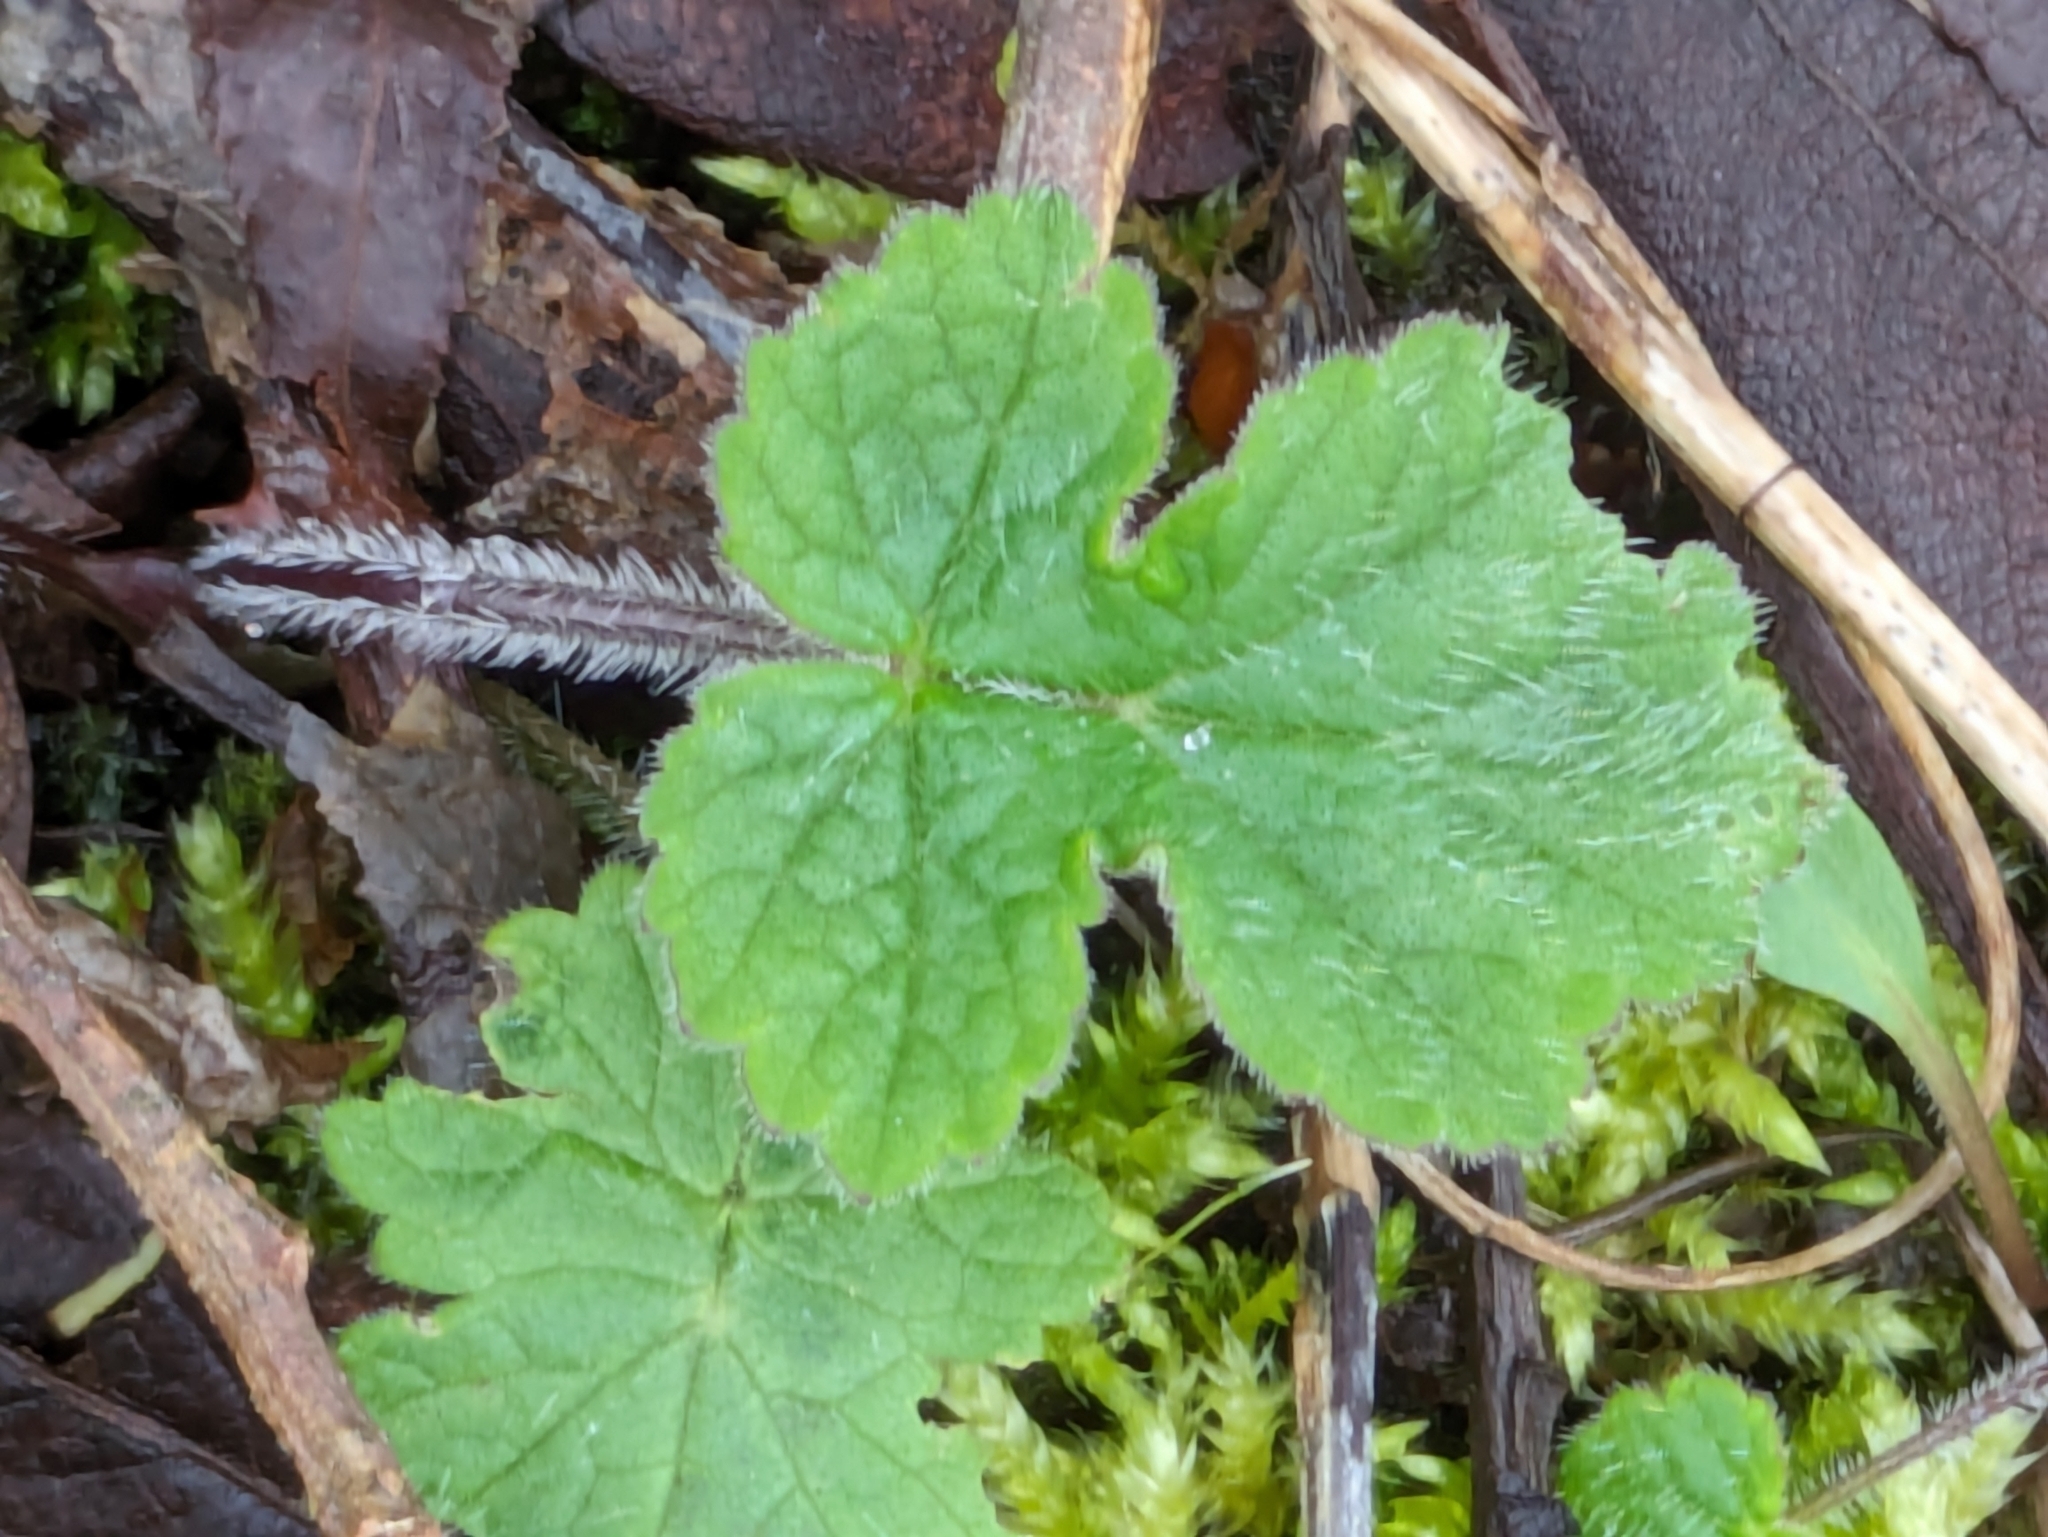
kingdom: Plantae
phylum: Tracheophyta
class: Magnoliopsida
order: Apiales
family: Apiaceae
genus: Heracleum
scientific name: Heracleum sphondylium
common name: Hogweed
